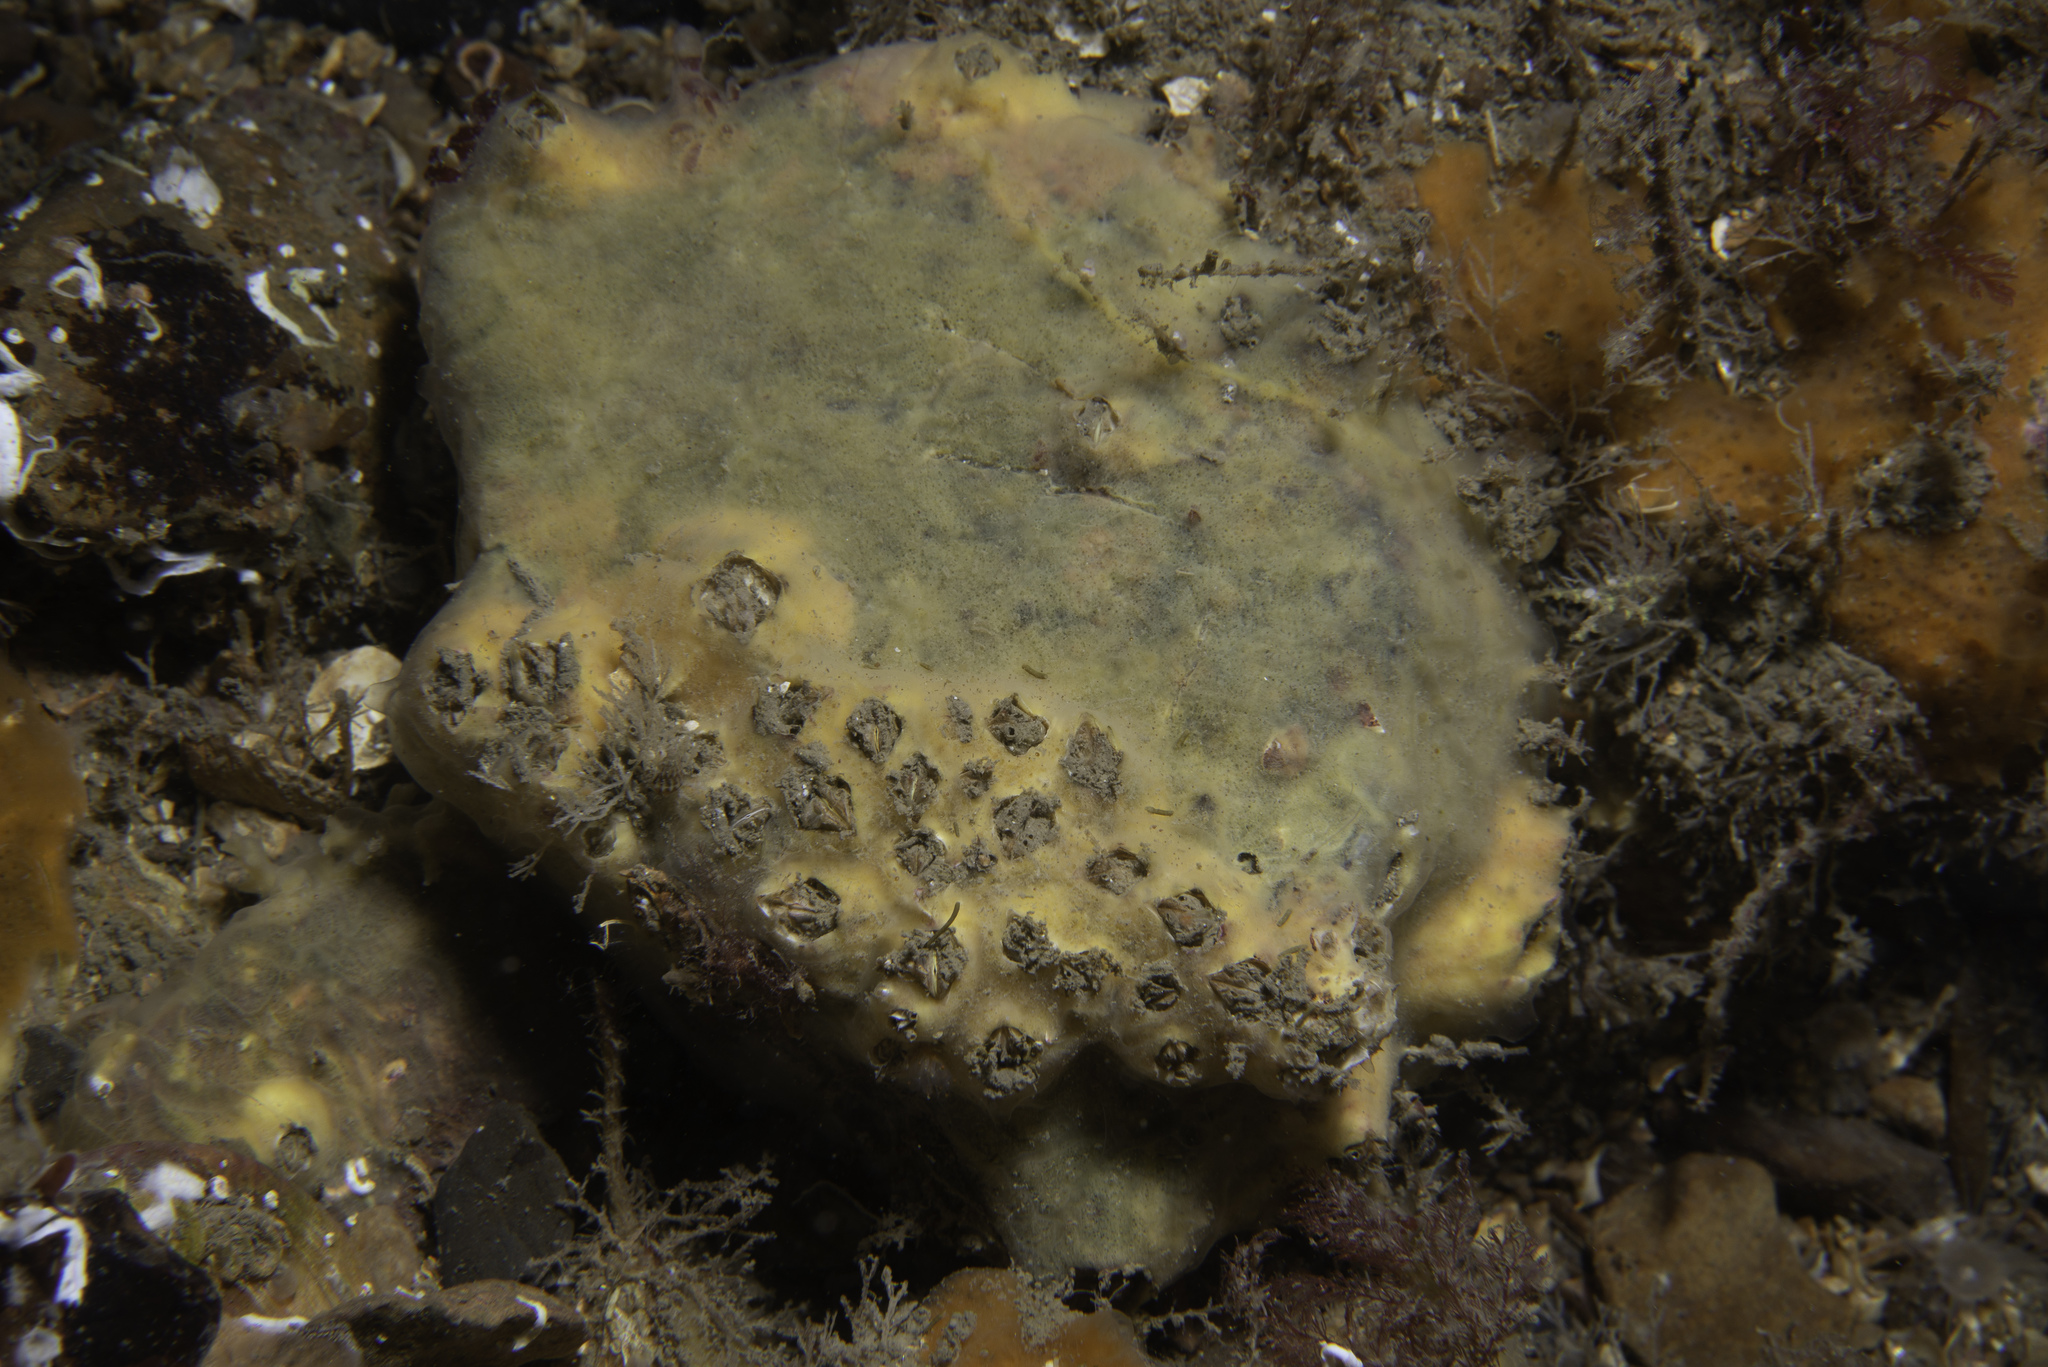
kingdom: Animalia
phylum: Porifera
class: Demospongiae
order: Poecilosclerida
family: Acarnidae
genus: Iophon
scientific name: Iophon hyndmani
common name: Hyndman's horny sponge
